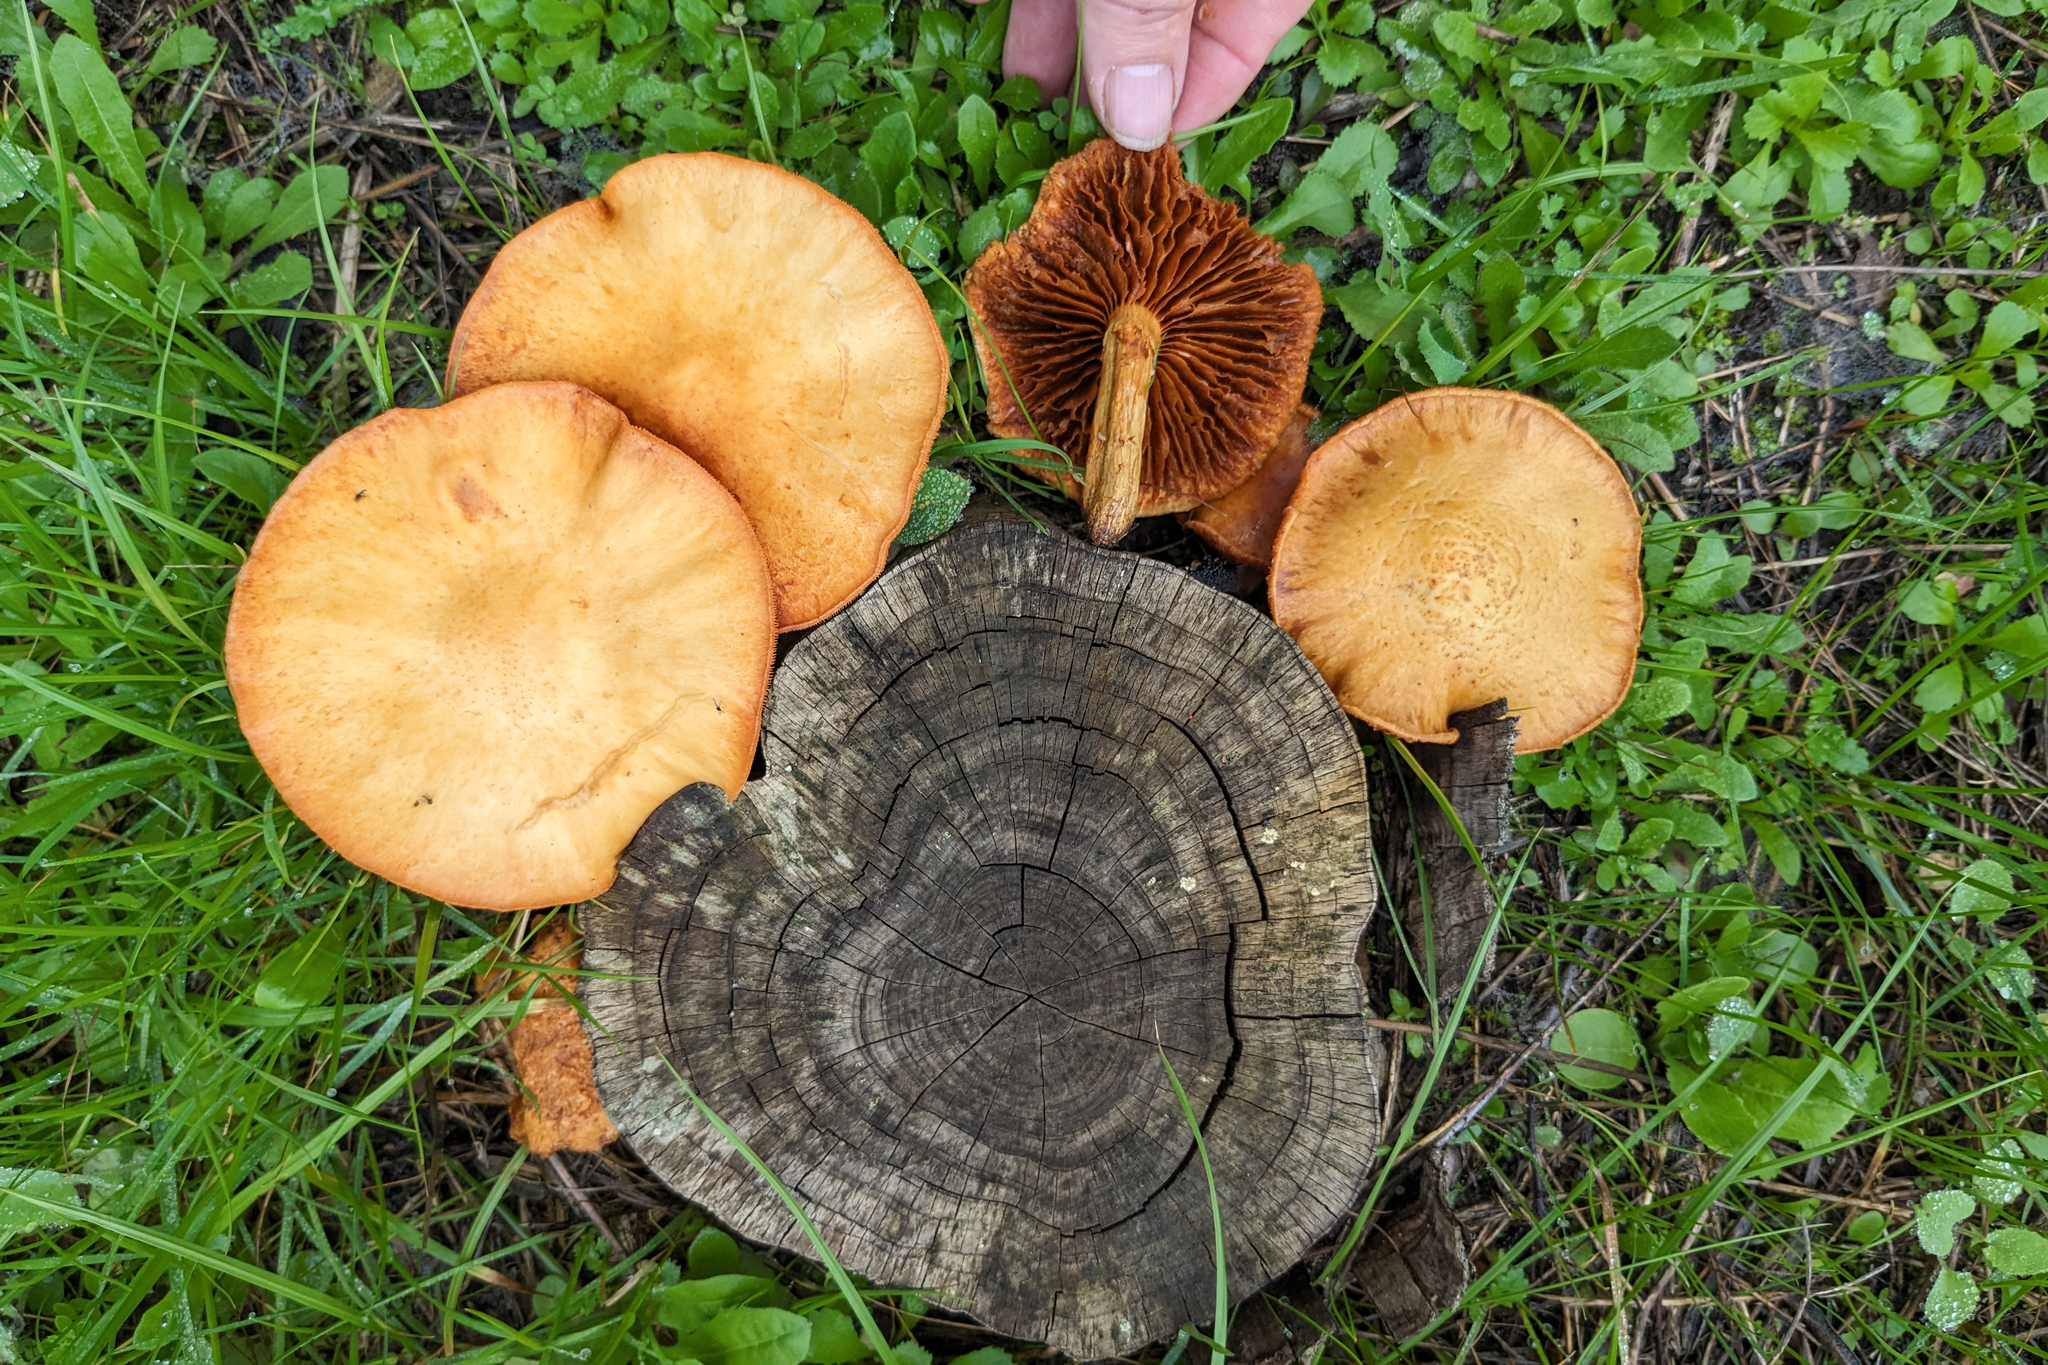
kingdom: Fungi
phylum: Basidiomycota
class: Agaricomycetes
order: Agaricales
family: Hymenogastraceae
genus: Gymnopilus
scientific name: Gymnopilus junonius
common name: Spectacular rustgill
